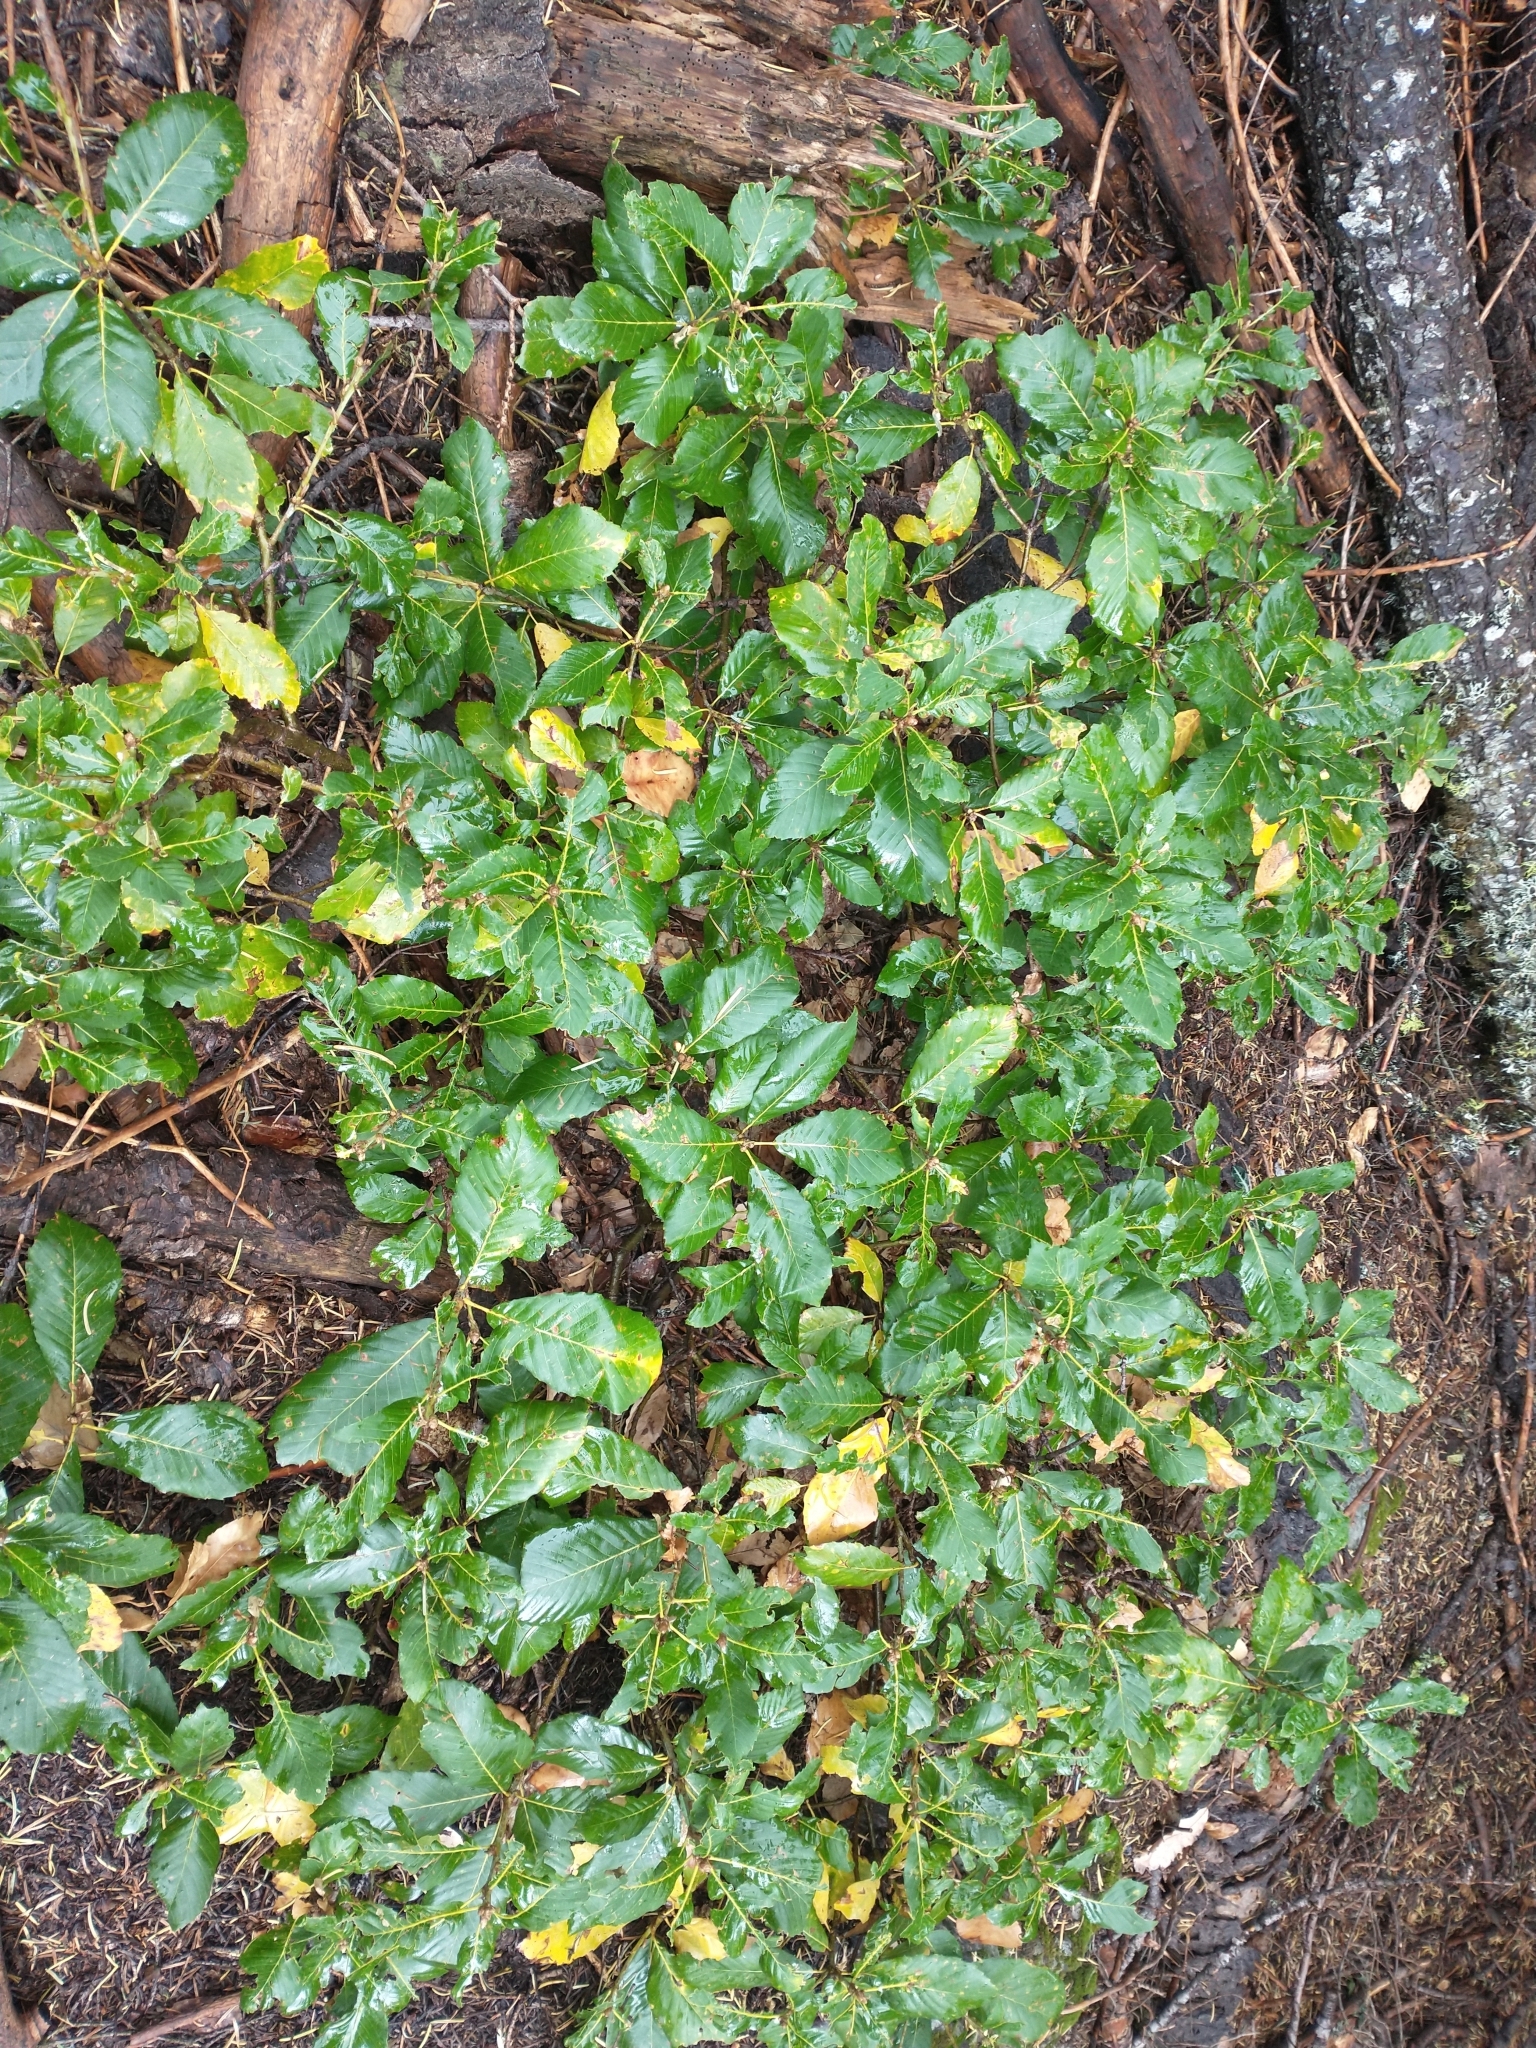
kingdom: Plantae
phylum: Tracheophyta
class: Magnoliopsida
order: Fagales
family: Fagaceae
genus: Quercus
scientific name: Quercus sadleriana
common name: Deer oak
